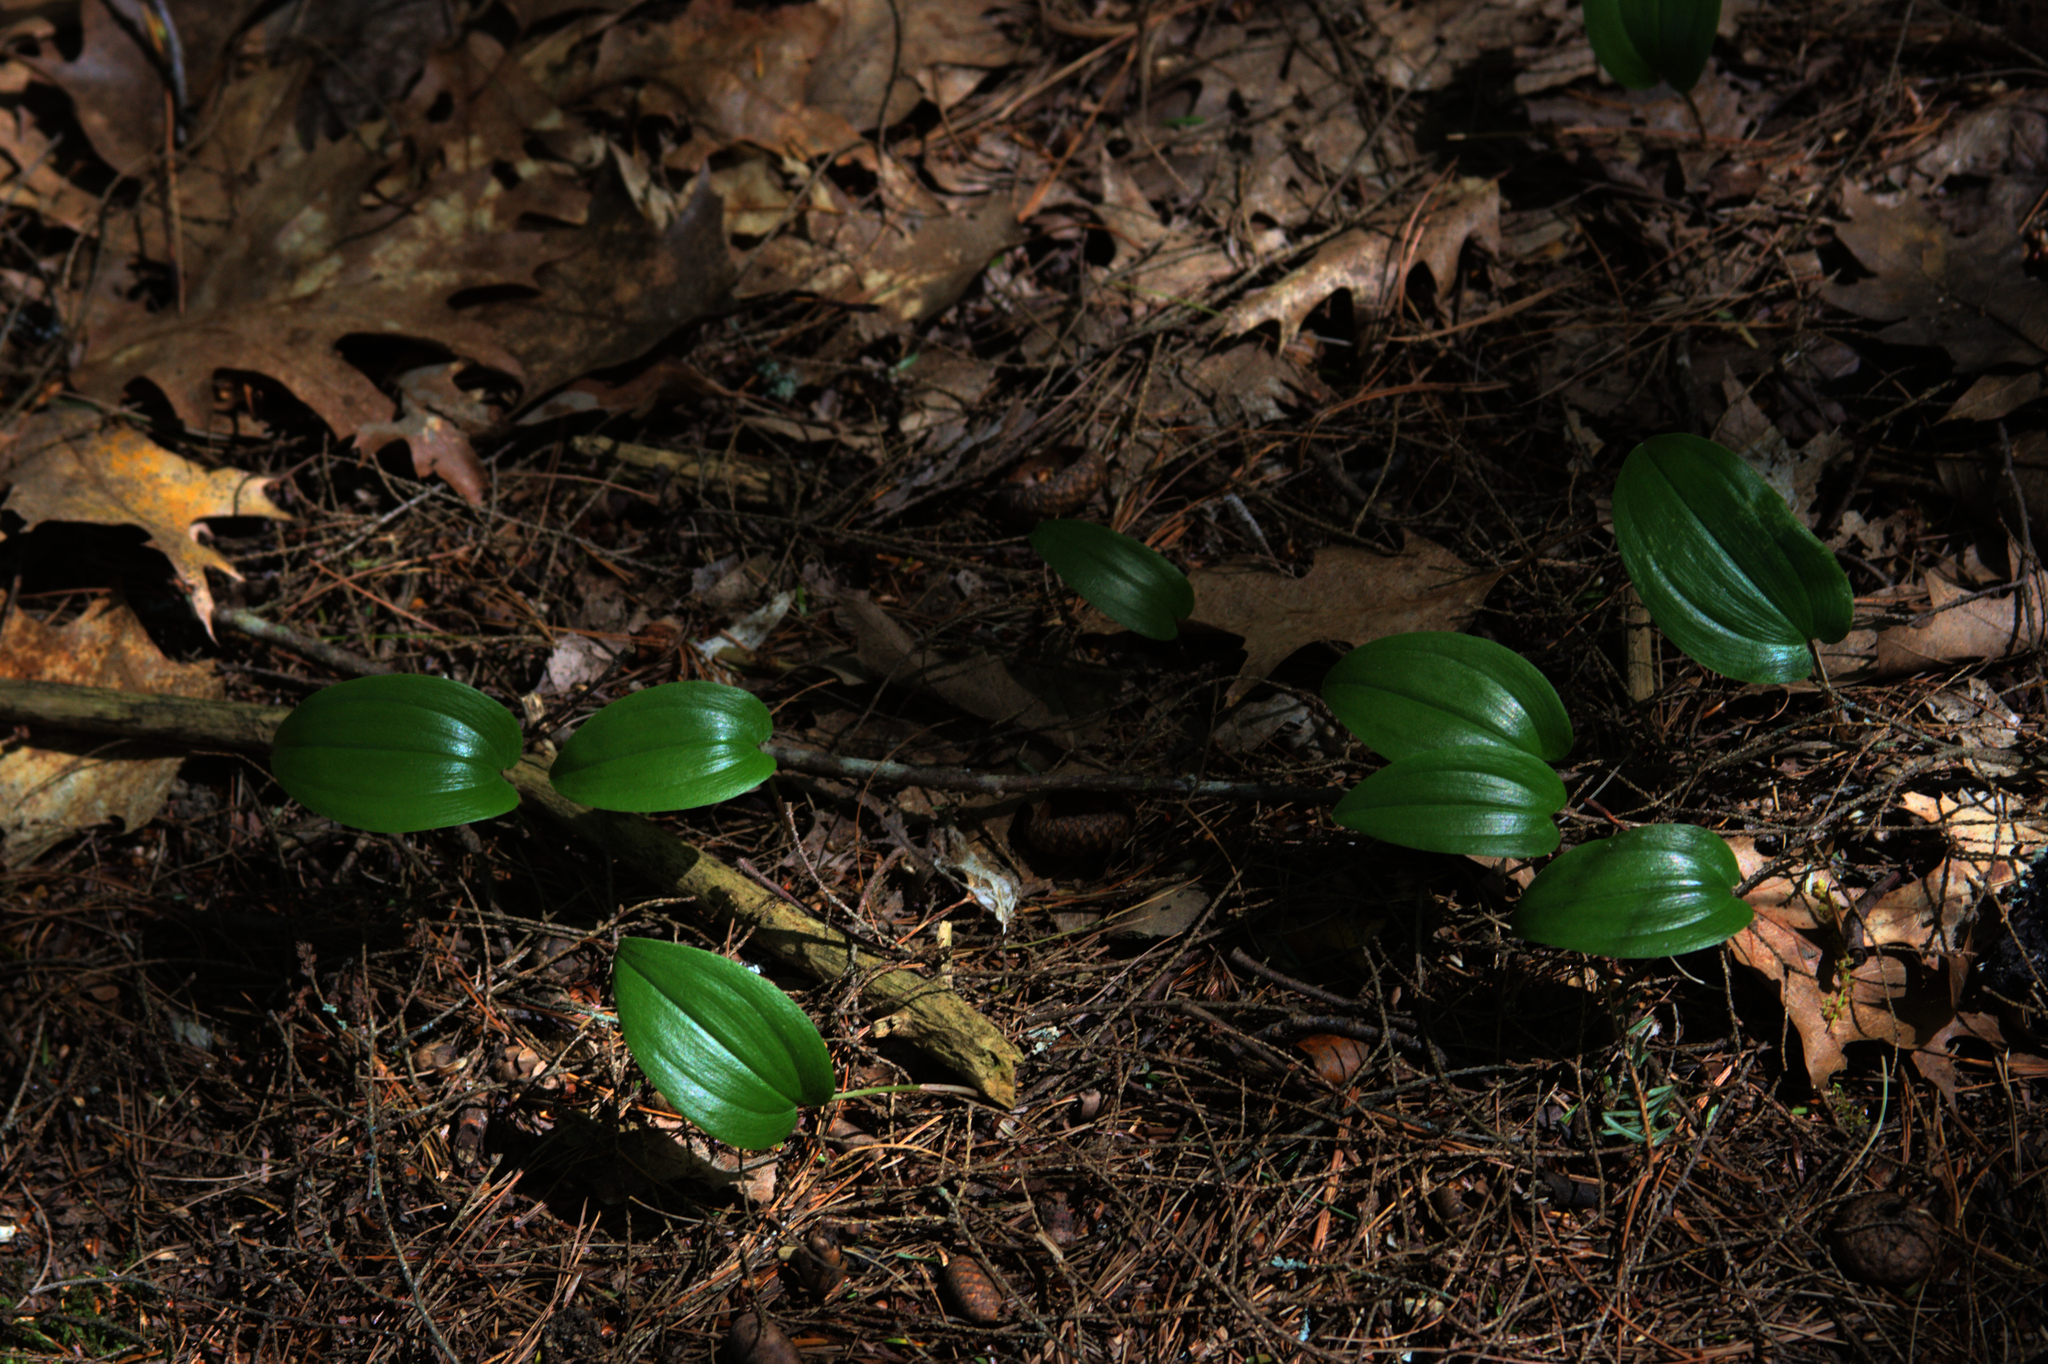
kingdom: Plantae
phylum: Tracheophyta
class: Liliopsida
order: Asparagales
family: Asparagaceae
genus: Maianthemum
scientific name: Maianthemum canadense
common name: False lily-of-the-valley
